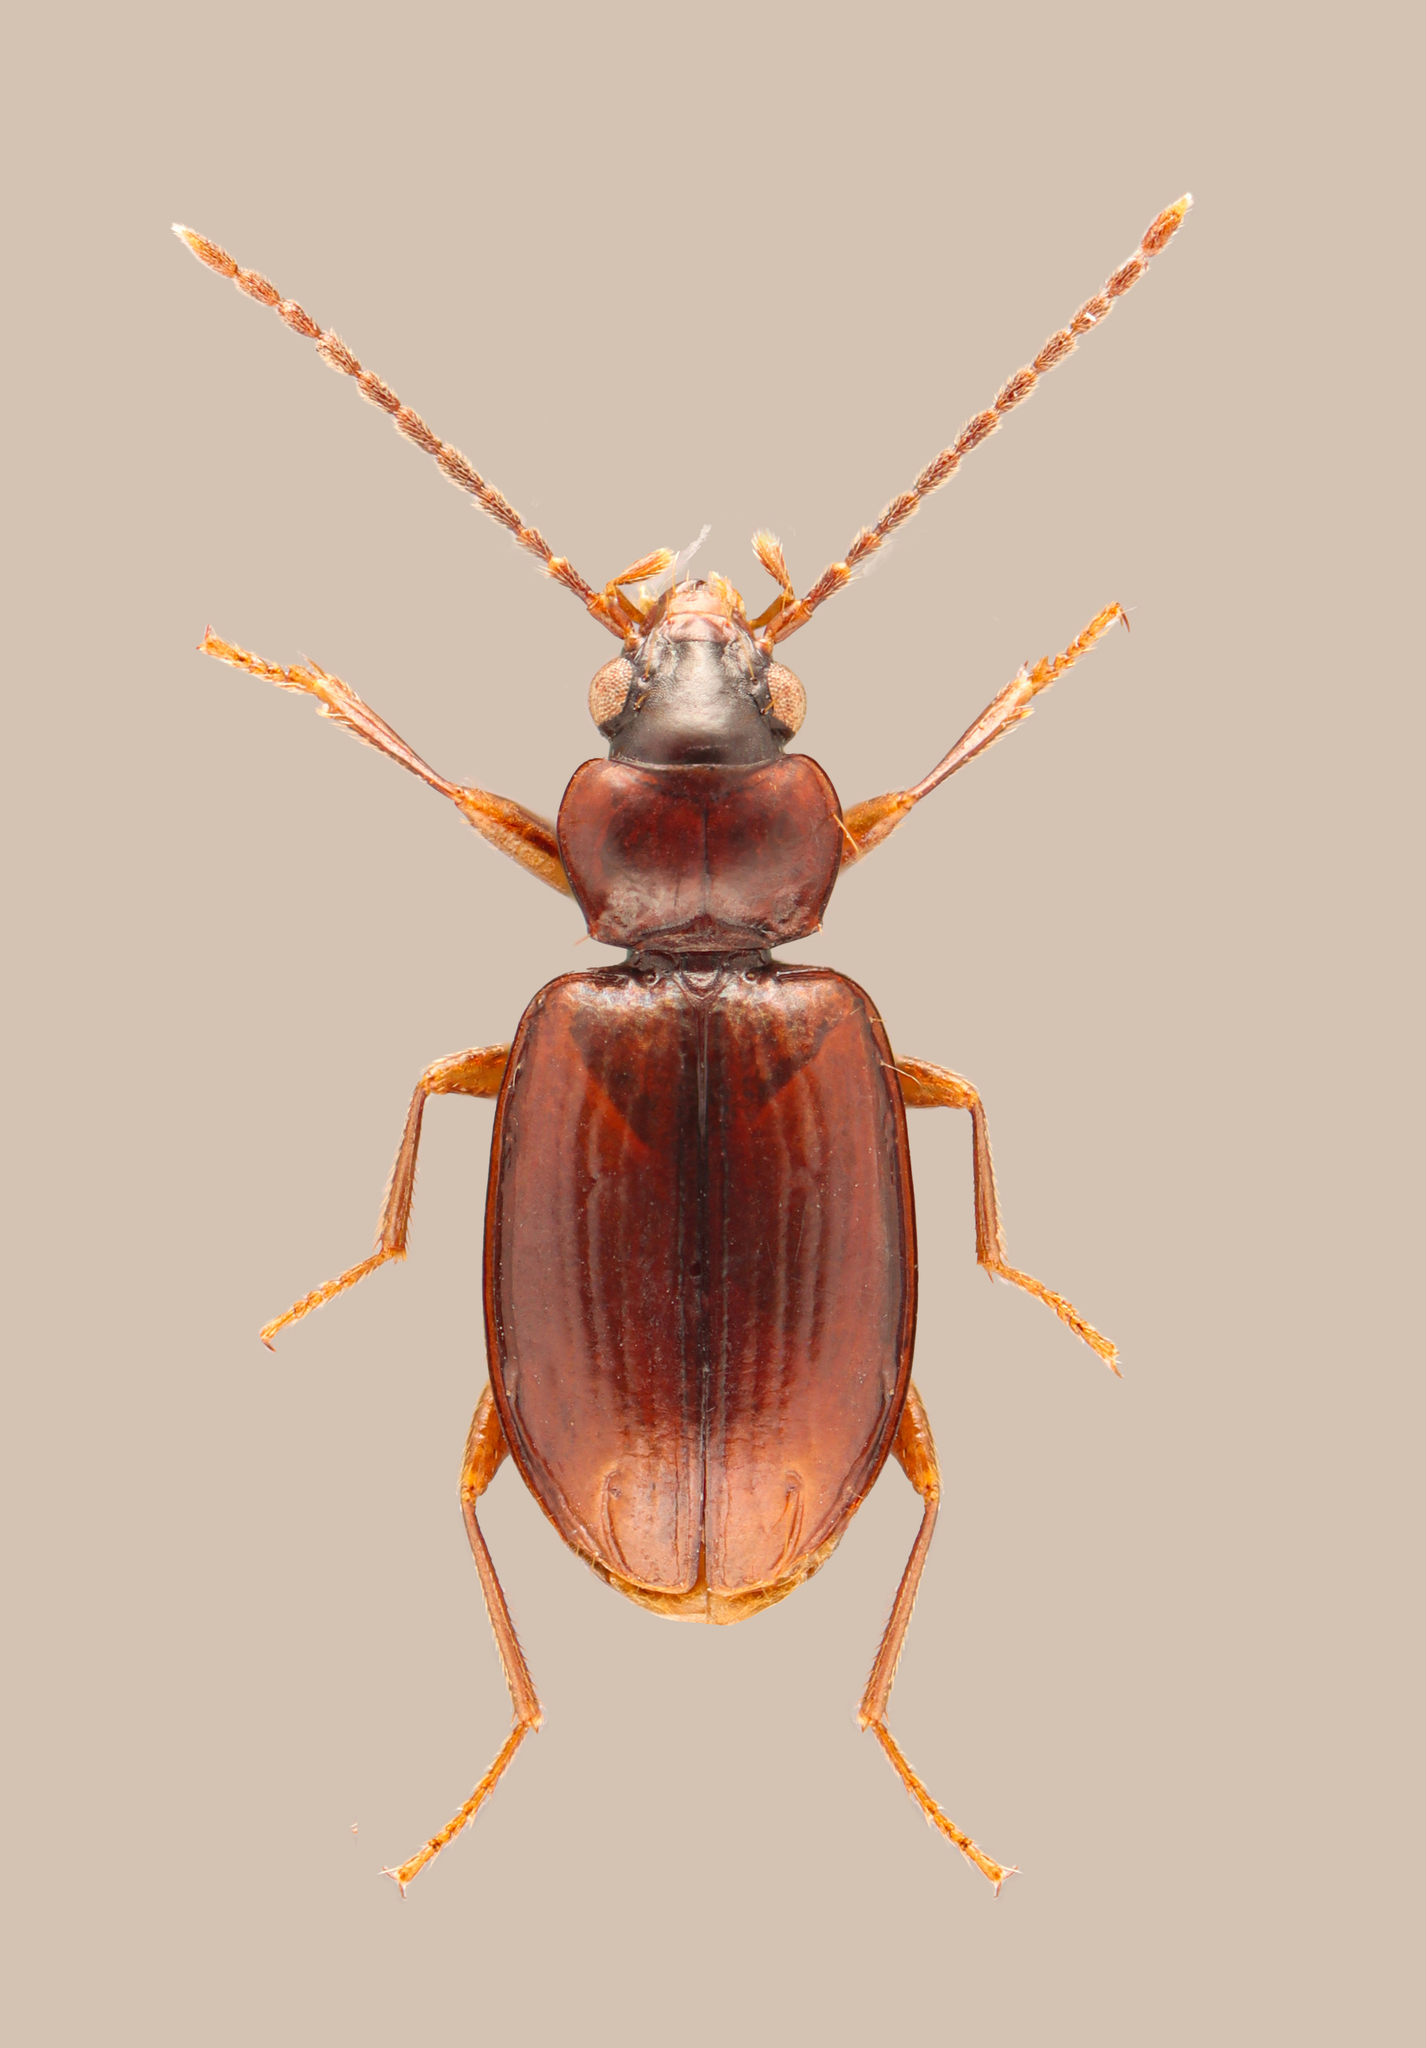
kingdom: Animalia
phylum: Arthropoda
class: Insecta
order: Coleoptera
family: Carabidae
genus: Tachys
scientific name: Tachys pumilus
